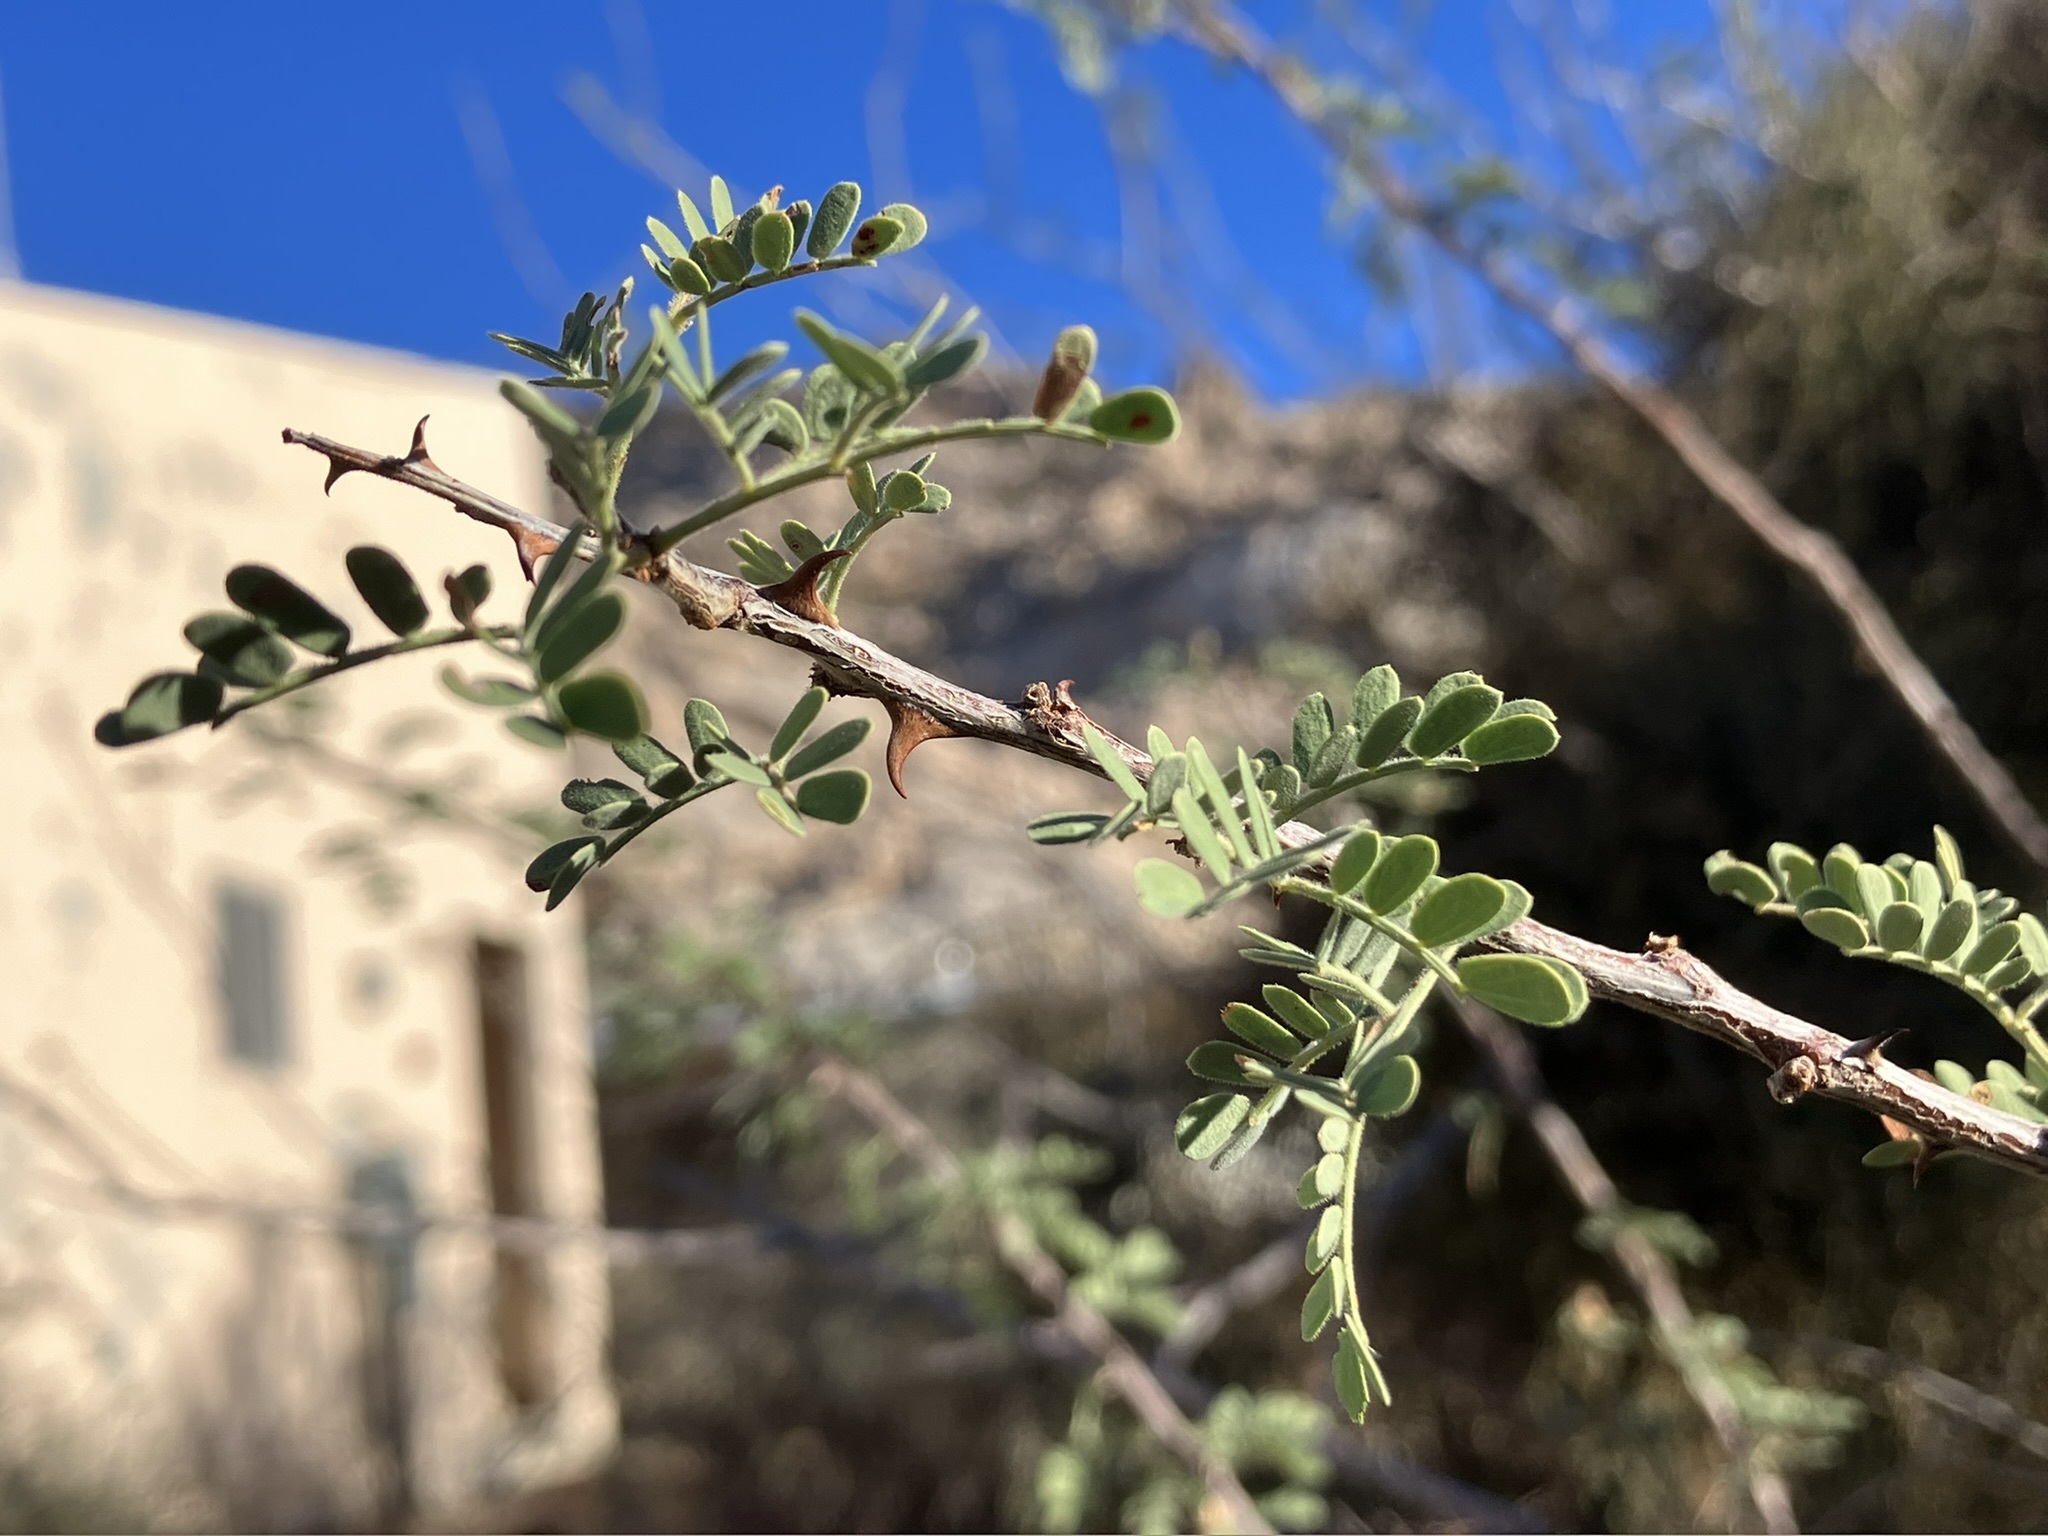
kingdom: Plantae
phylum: Tracheophyta
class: Magnoliopsida
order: Fabales
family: Fabaceae
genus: Senegalia
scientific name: Senegalia greggii
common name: Texas-mimosa
